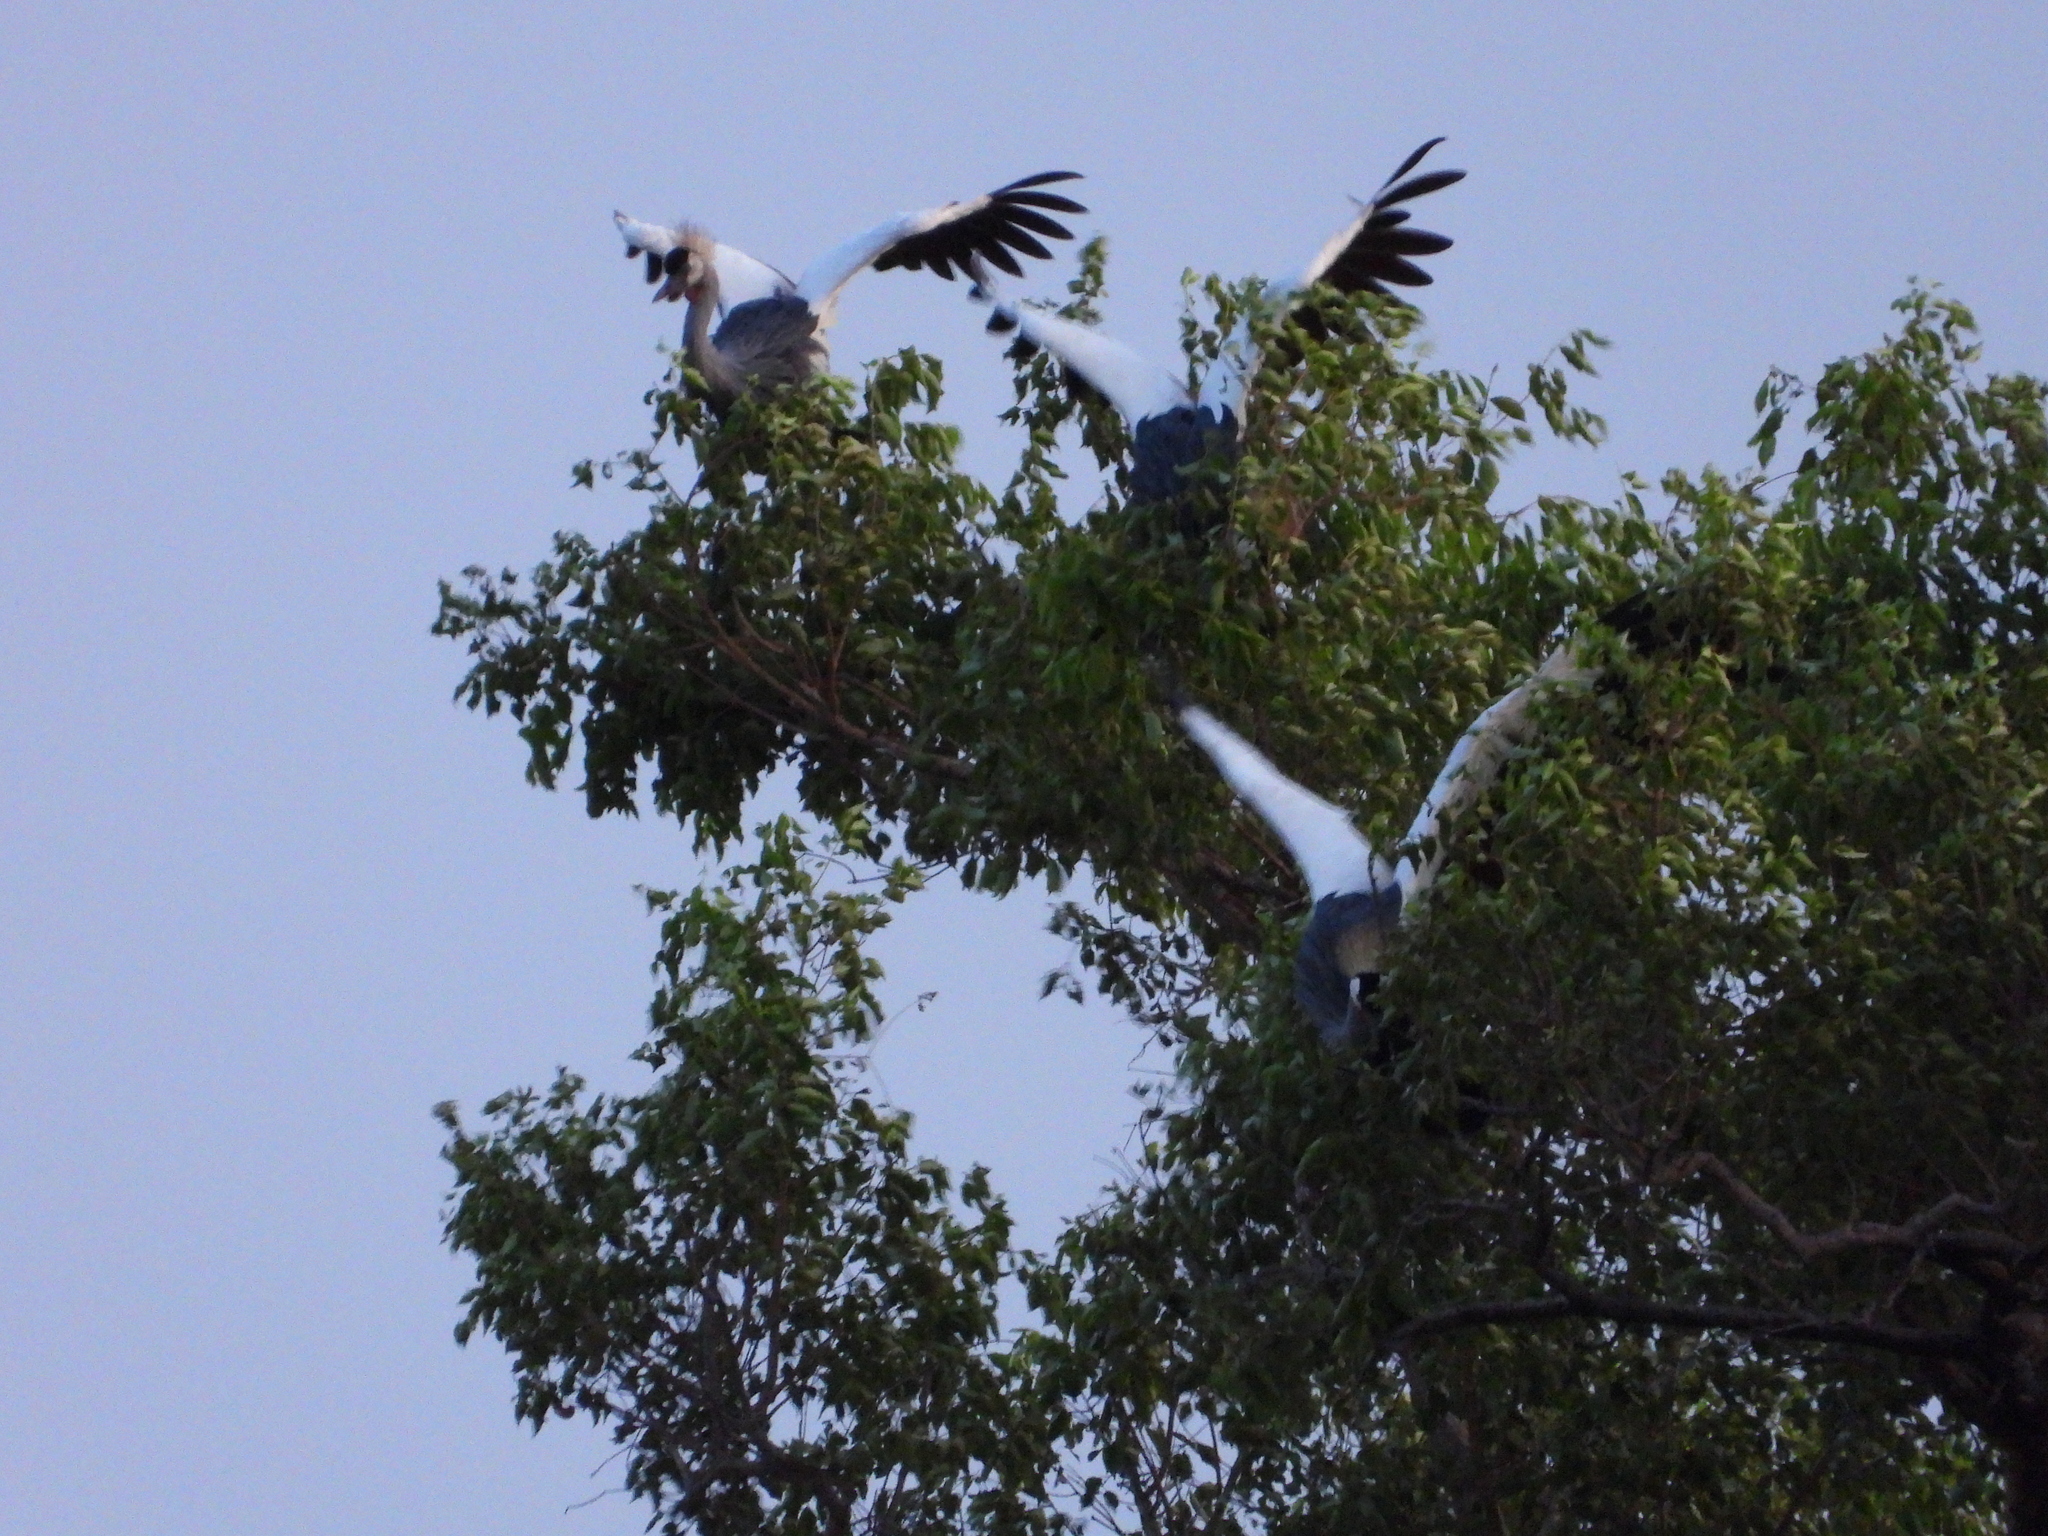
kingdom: Animalia
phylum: Chordata
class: Aves
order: Gruiformes
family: Gruidae
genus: Balearica
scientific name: Balearica regulorum
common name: Grey crowned crane
